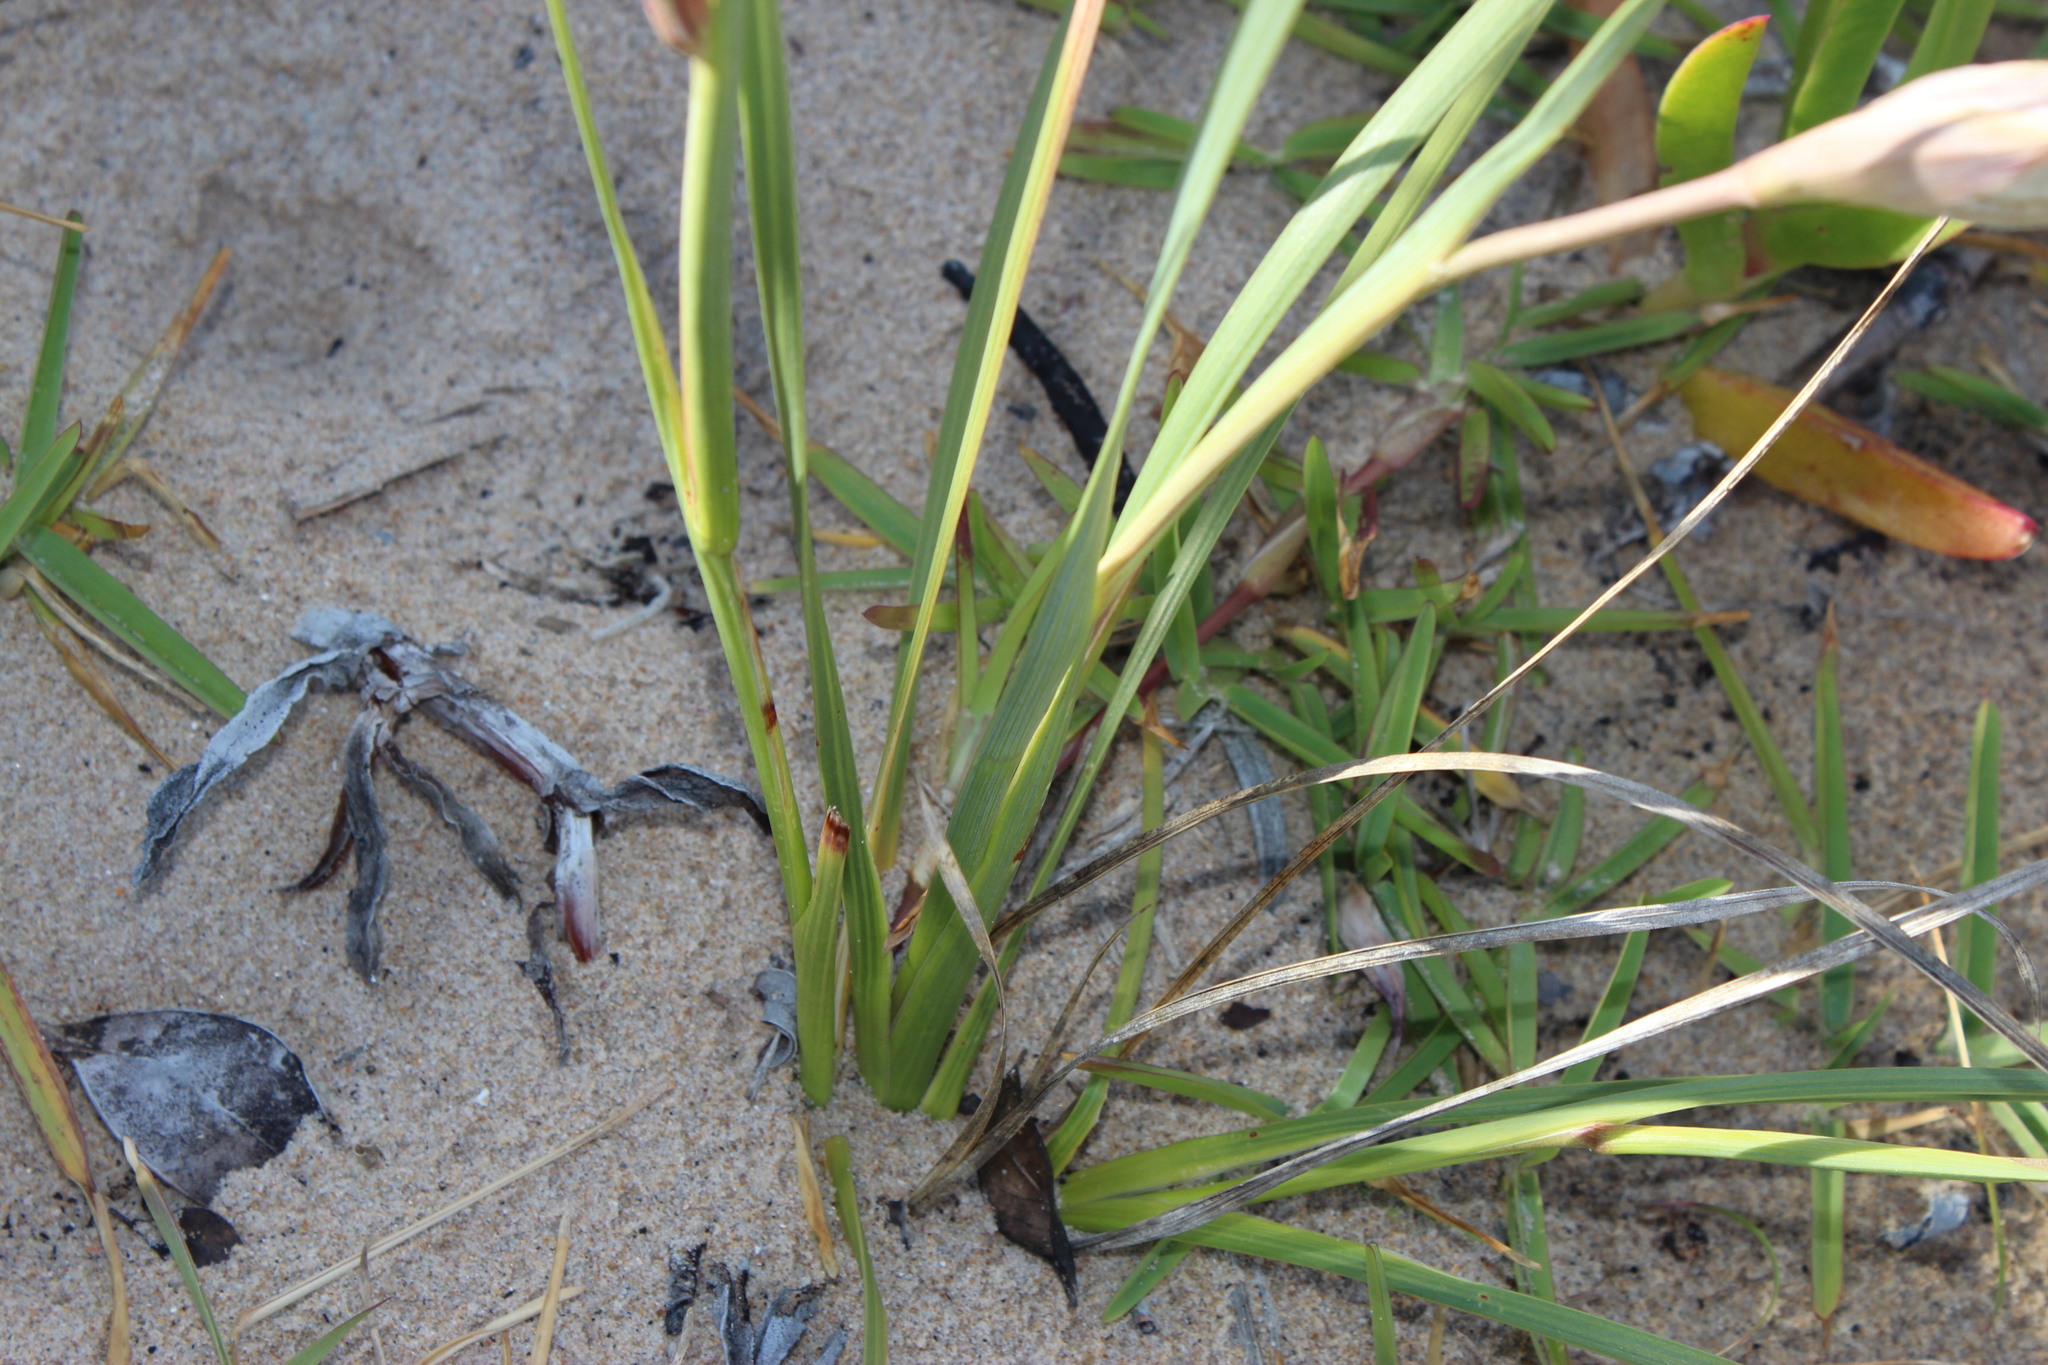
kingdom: Plantae
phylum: Tracheophyta
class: Liliopsida
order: Asparagales
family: Iridaceae
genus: Gladiolus
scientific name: Gladiolus gueinzii
